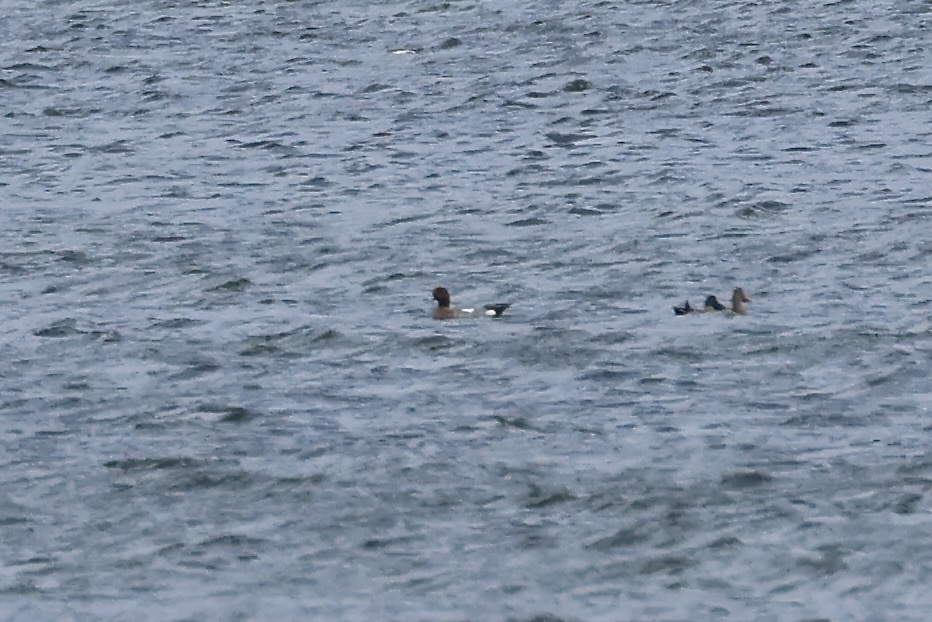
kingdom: Animalia
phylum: Chordata
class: Aves
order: Anseriformes
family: Anatidae
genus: Mareca
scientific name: Mareca penelope
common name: Eurasian wigeon
